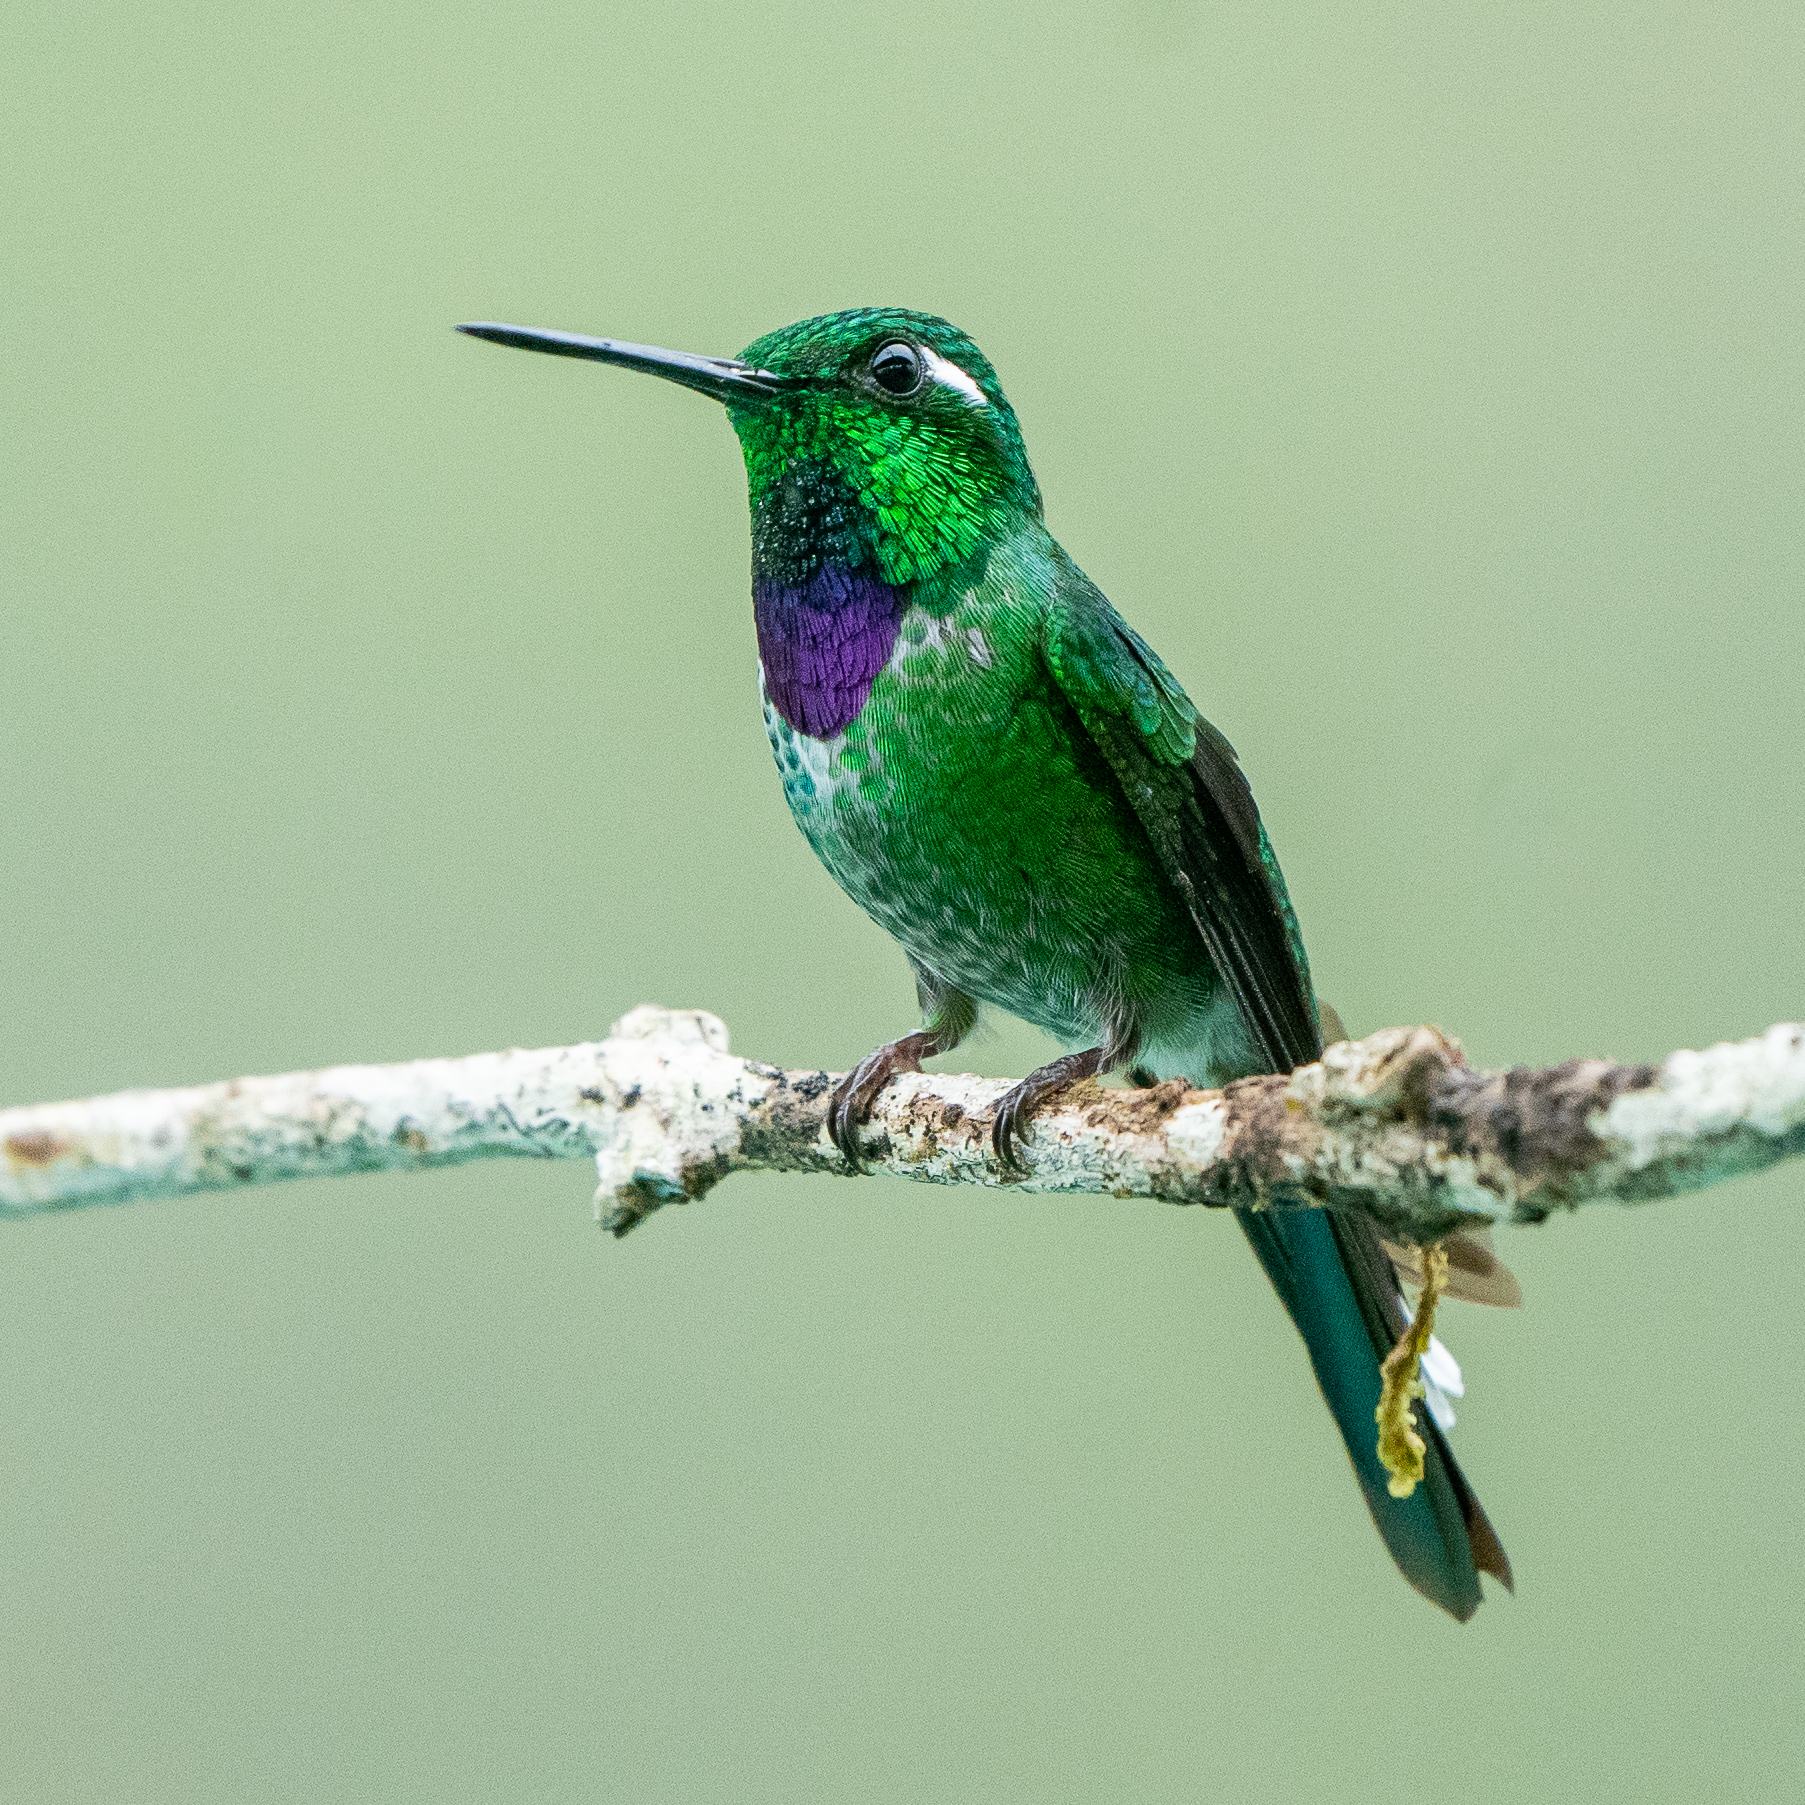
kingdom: Animalia
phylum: Chordata
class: Aves
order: Apodiformes
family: Trochilidae
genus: Urosticte
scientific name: Urosticte benjamini
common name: Purple-bibbed whitetip
